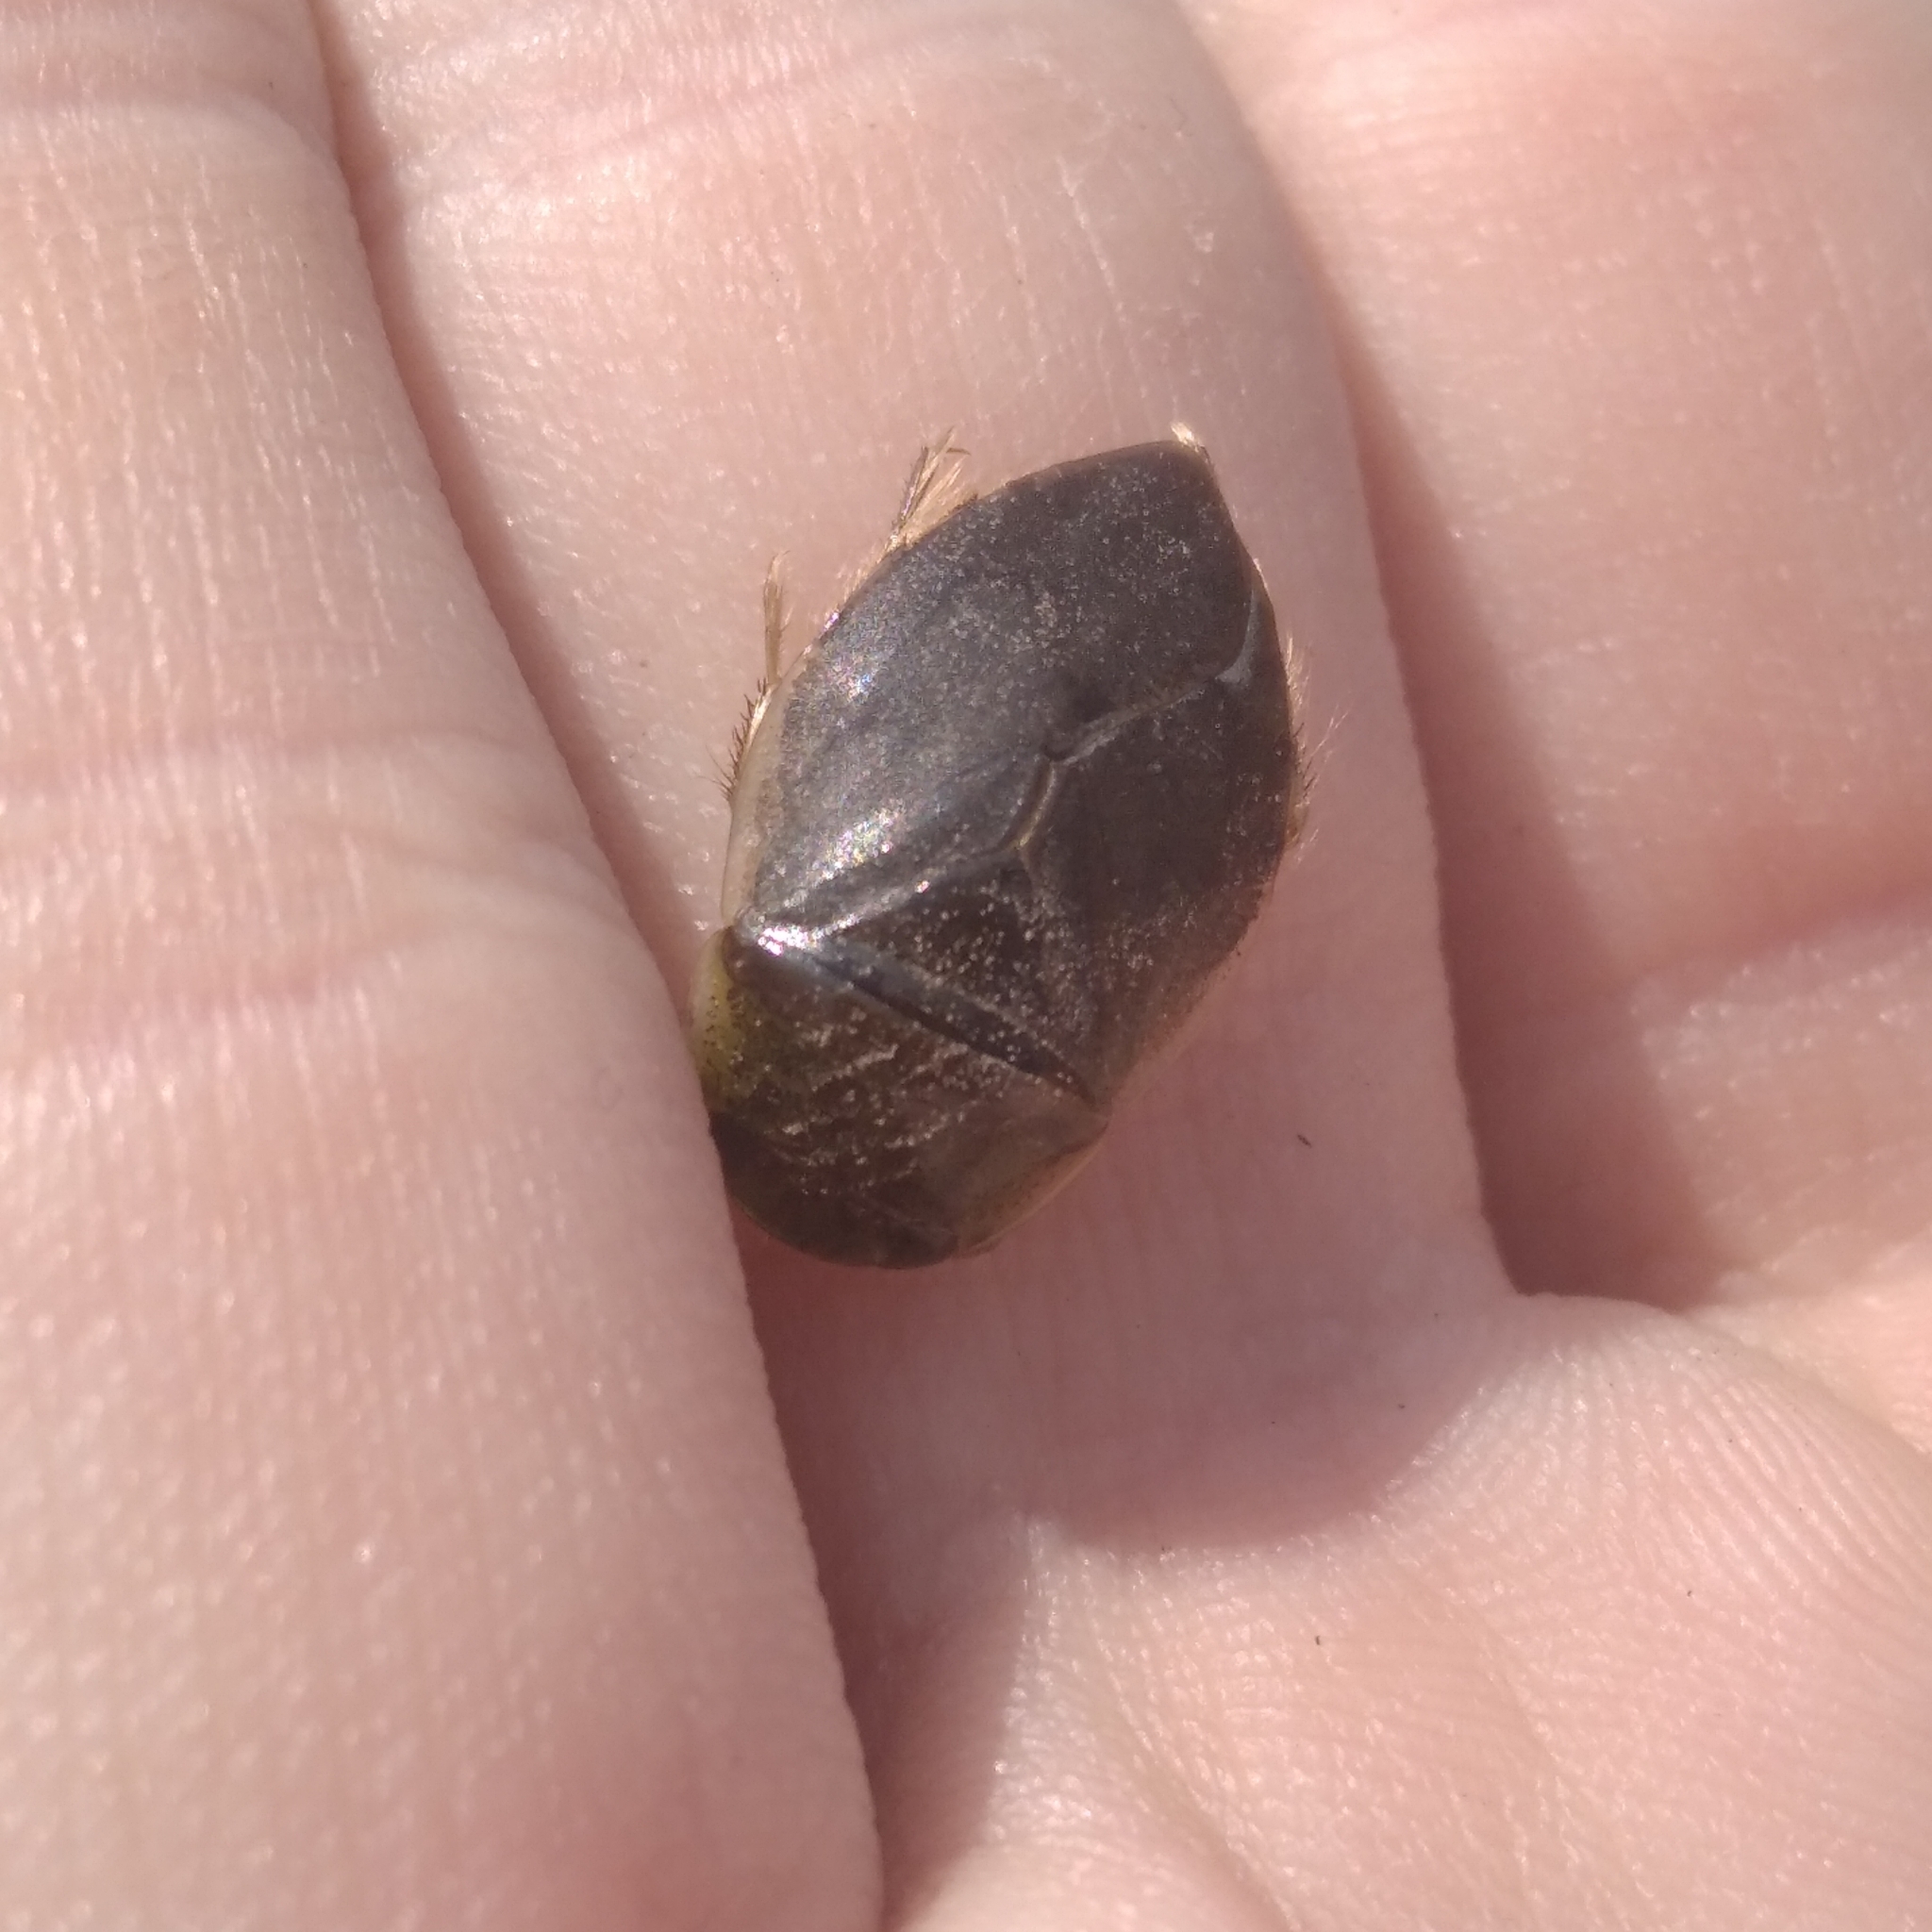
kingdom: Animalia
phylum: Arthropoda
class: Insecta
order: Hemiptera
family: Naucoridae
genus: Ilyocoris
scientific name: Ilyocoris cimicoides
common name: Saucer bugs
